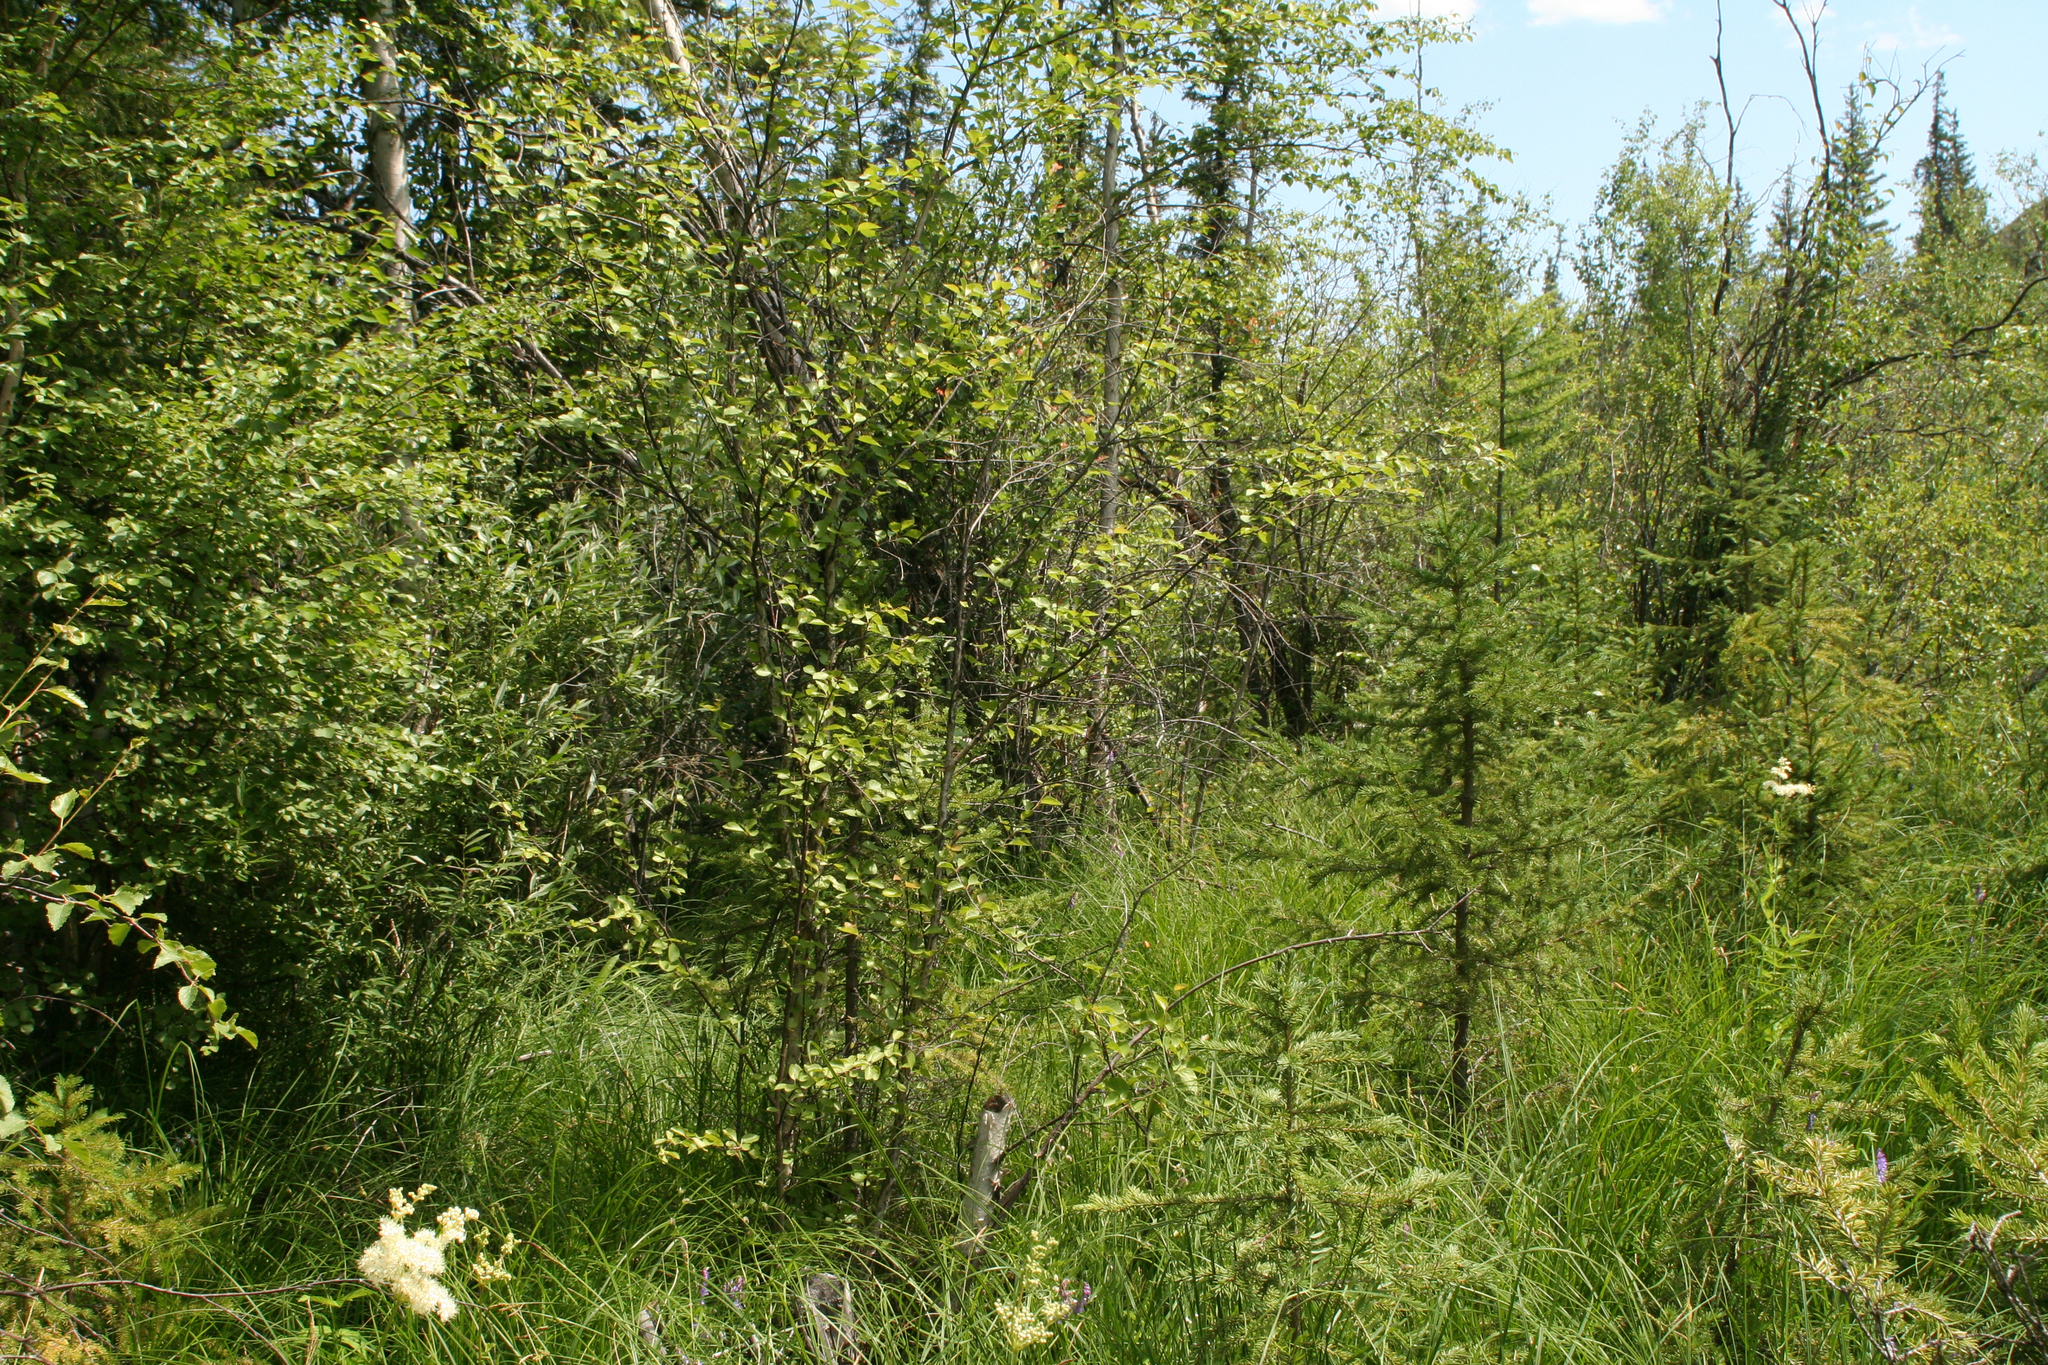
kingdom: Plantae
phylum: Tracheophyta
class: Pinopsida
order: Pinales
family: Pinaceae
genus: Picea
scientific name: Picea obovata
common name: Siberian spruce
